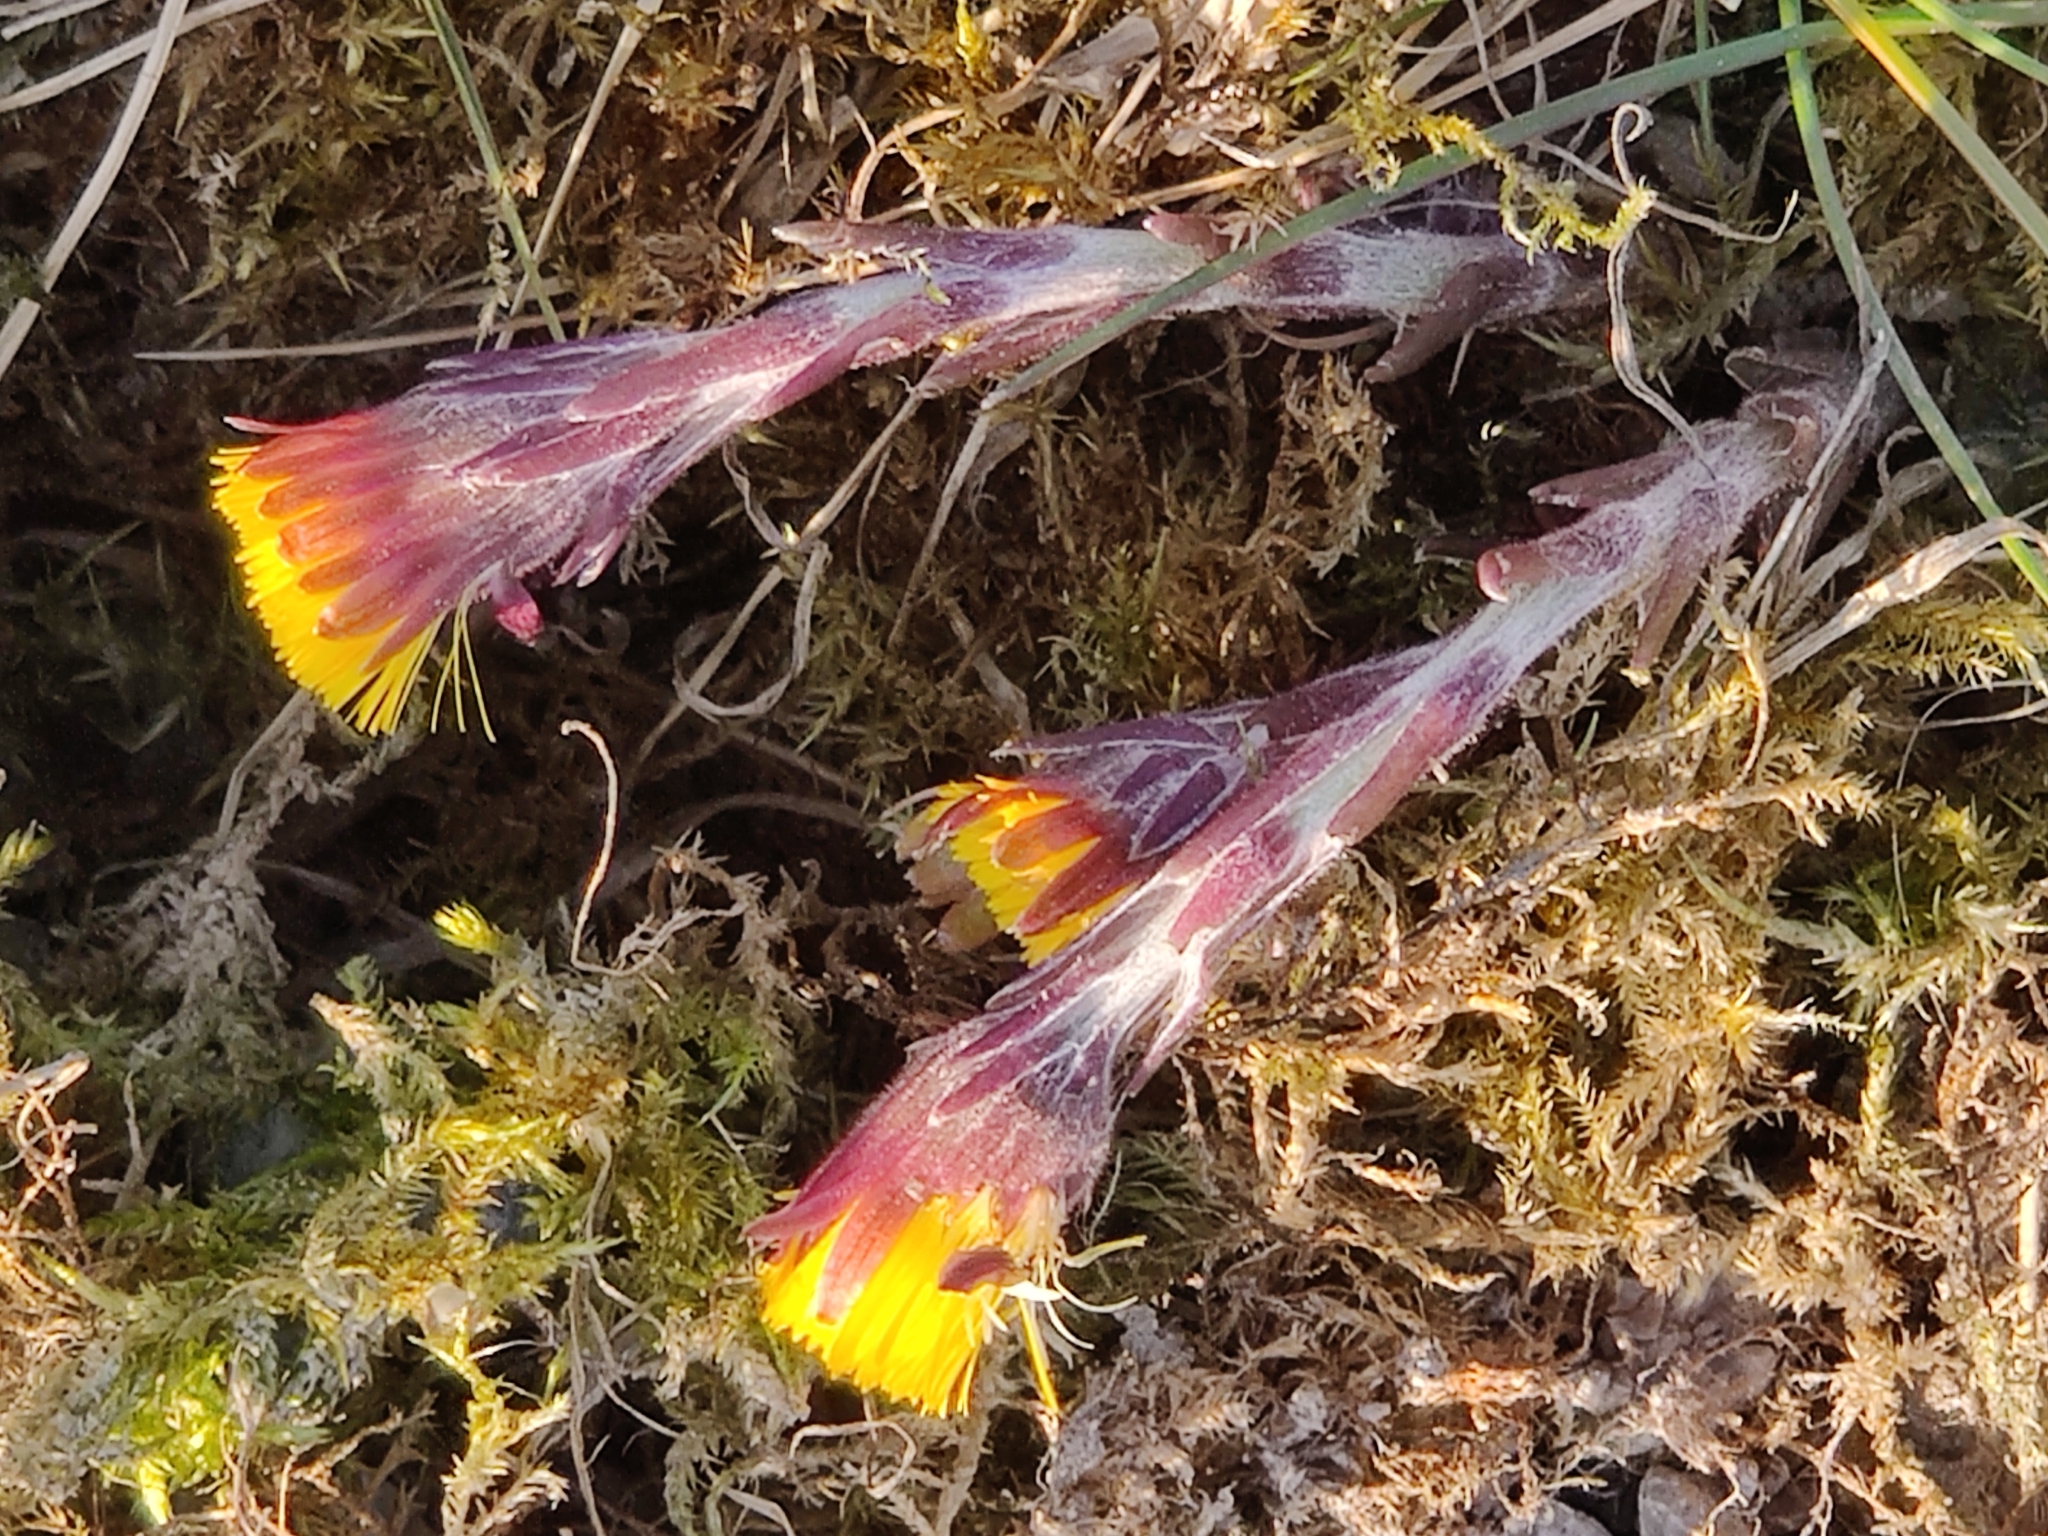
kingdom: Plantae
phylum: Tracheophyta
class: Magnoliopsida
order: Asterales
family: Asteraceae
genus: Tussilago
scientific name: Tussilago farfara
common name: Coltsfoot
